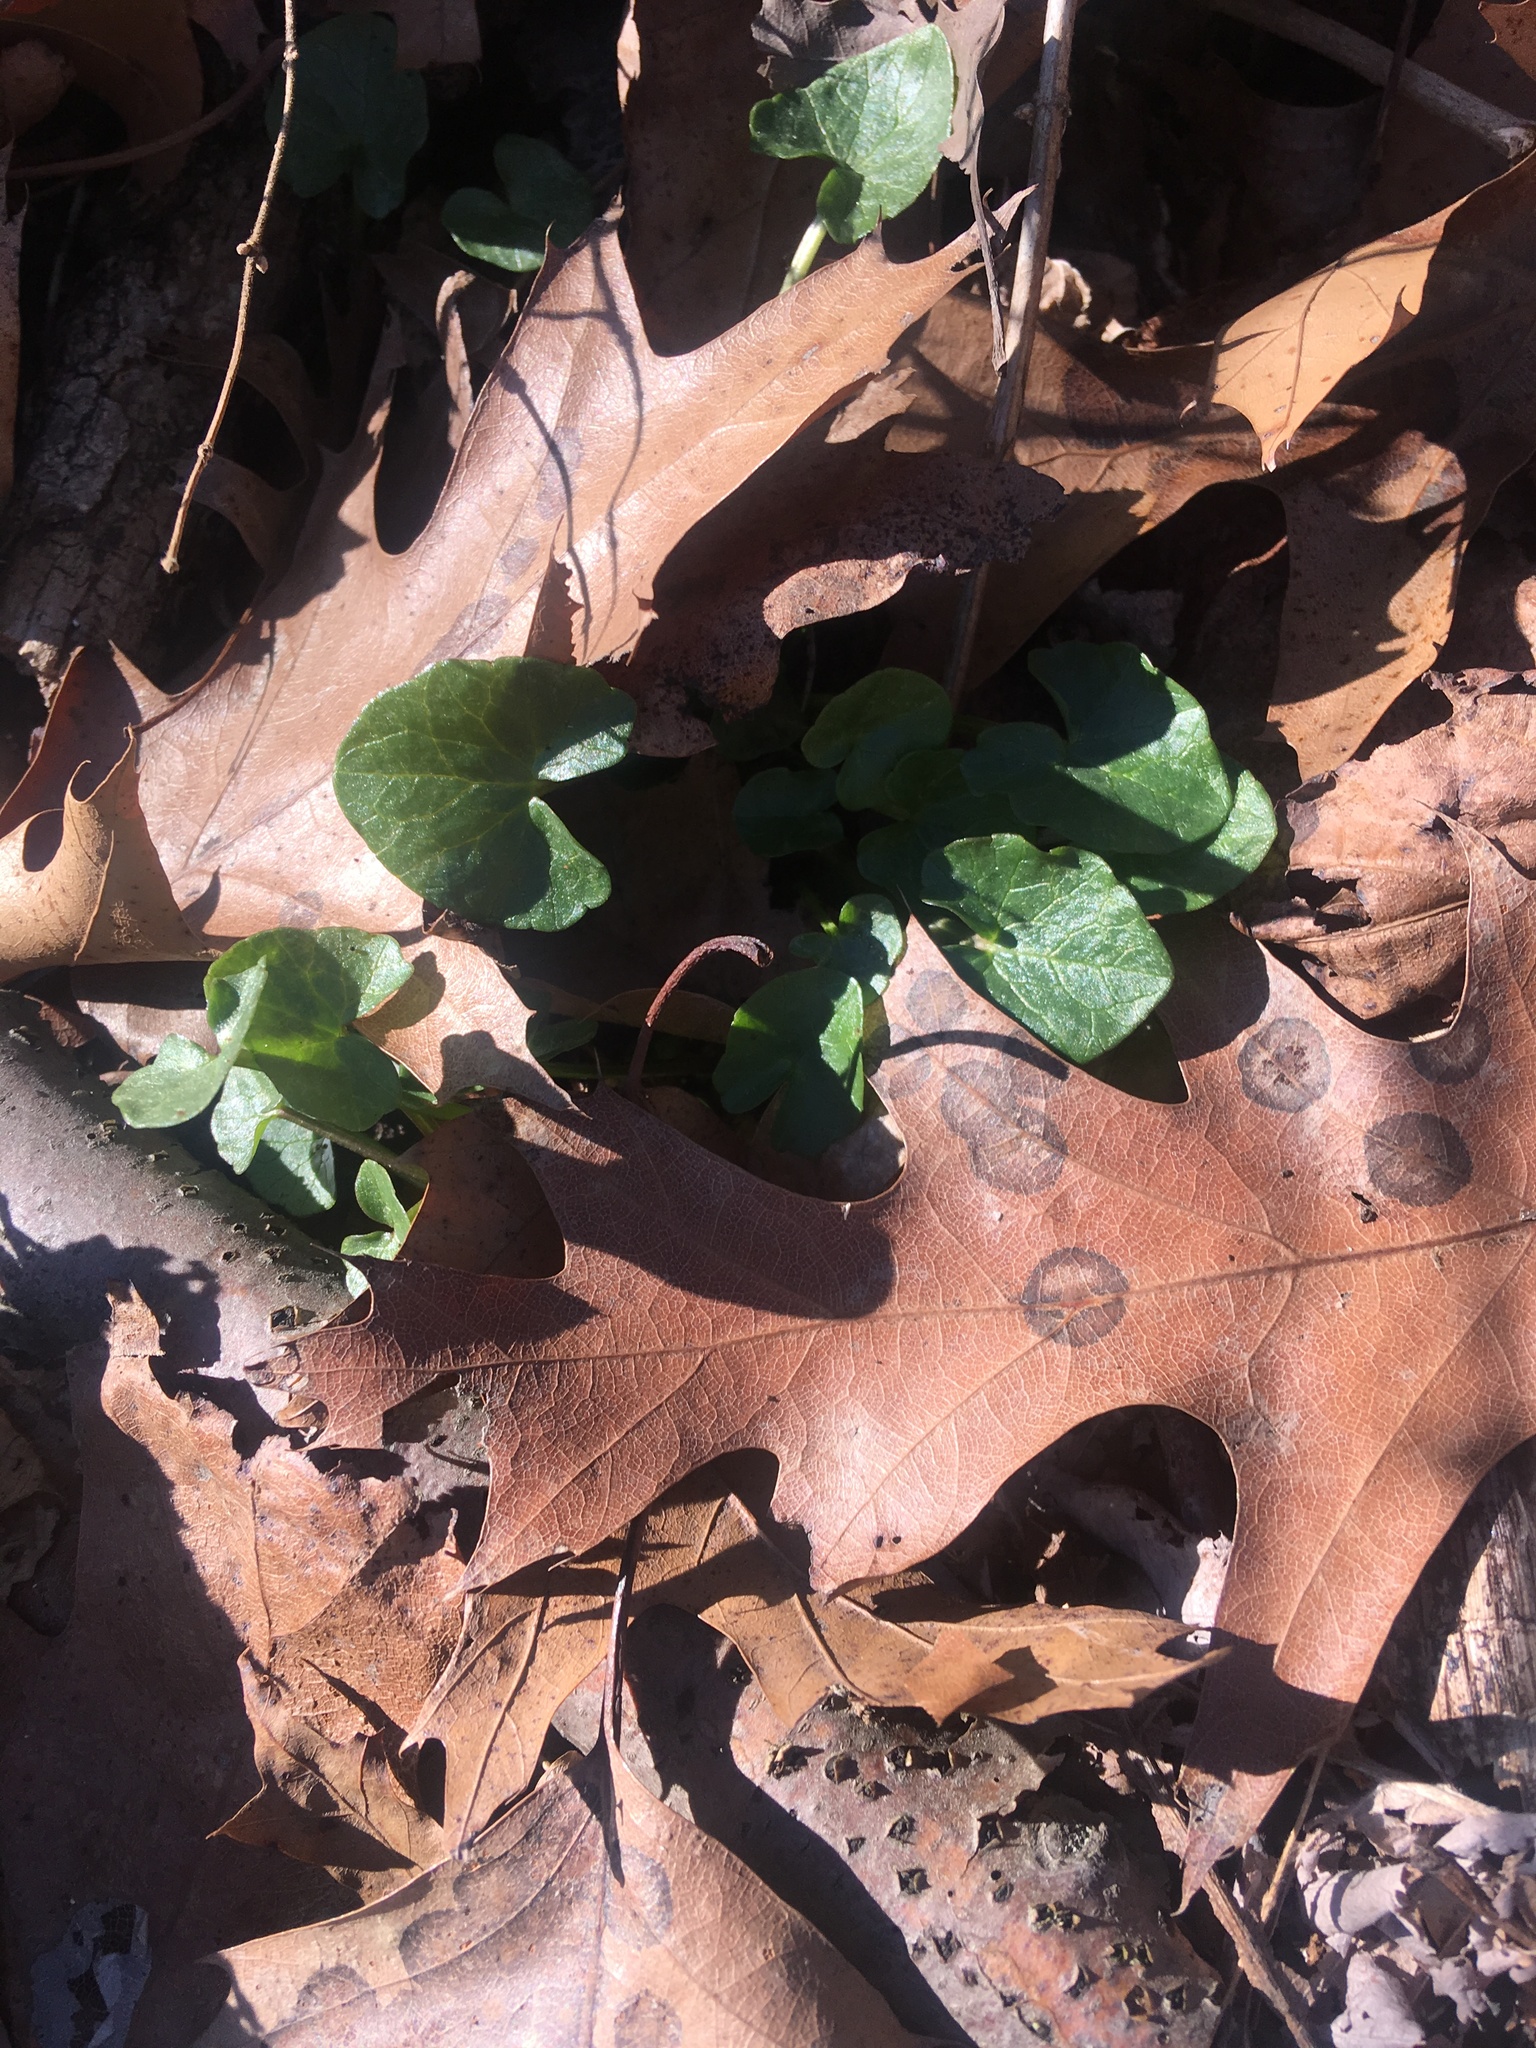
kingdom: Plantae
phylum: Tracheophyta
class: Magnoliopsida
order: Ranunculales
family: Ranunculaceae
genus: Ficaria
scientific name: Ficaria verna
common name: Lesser celandine
